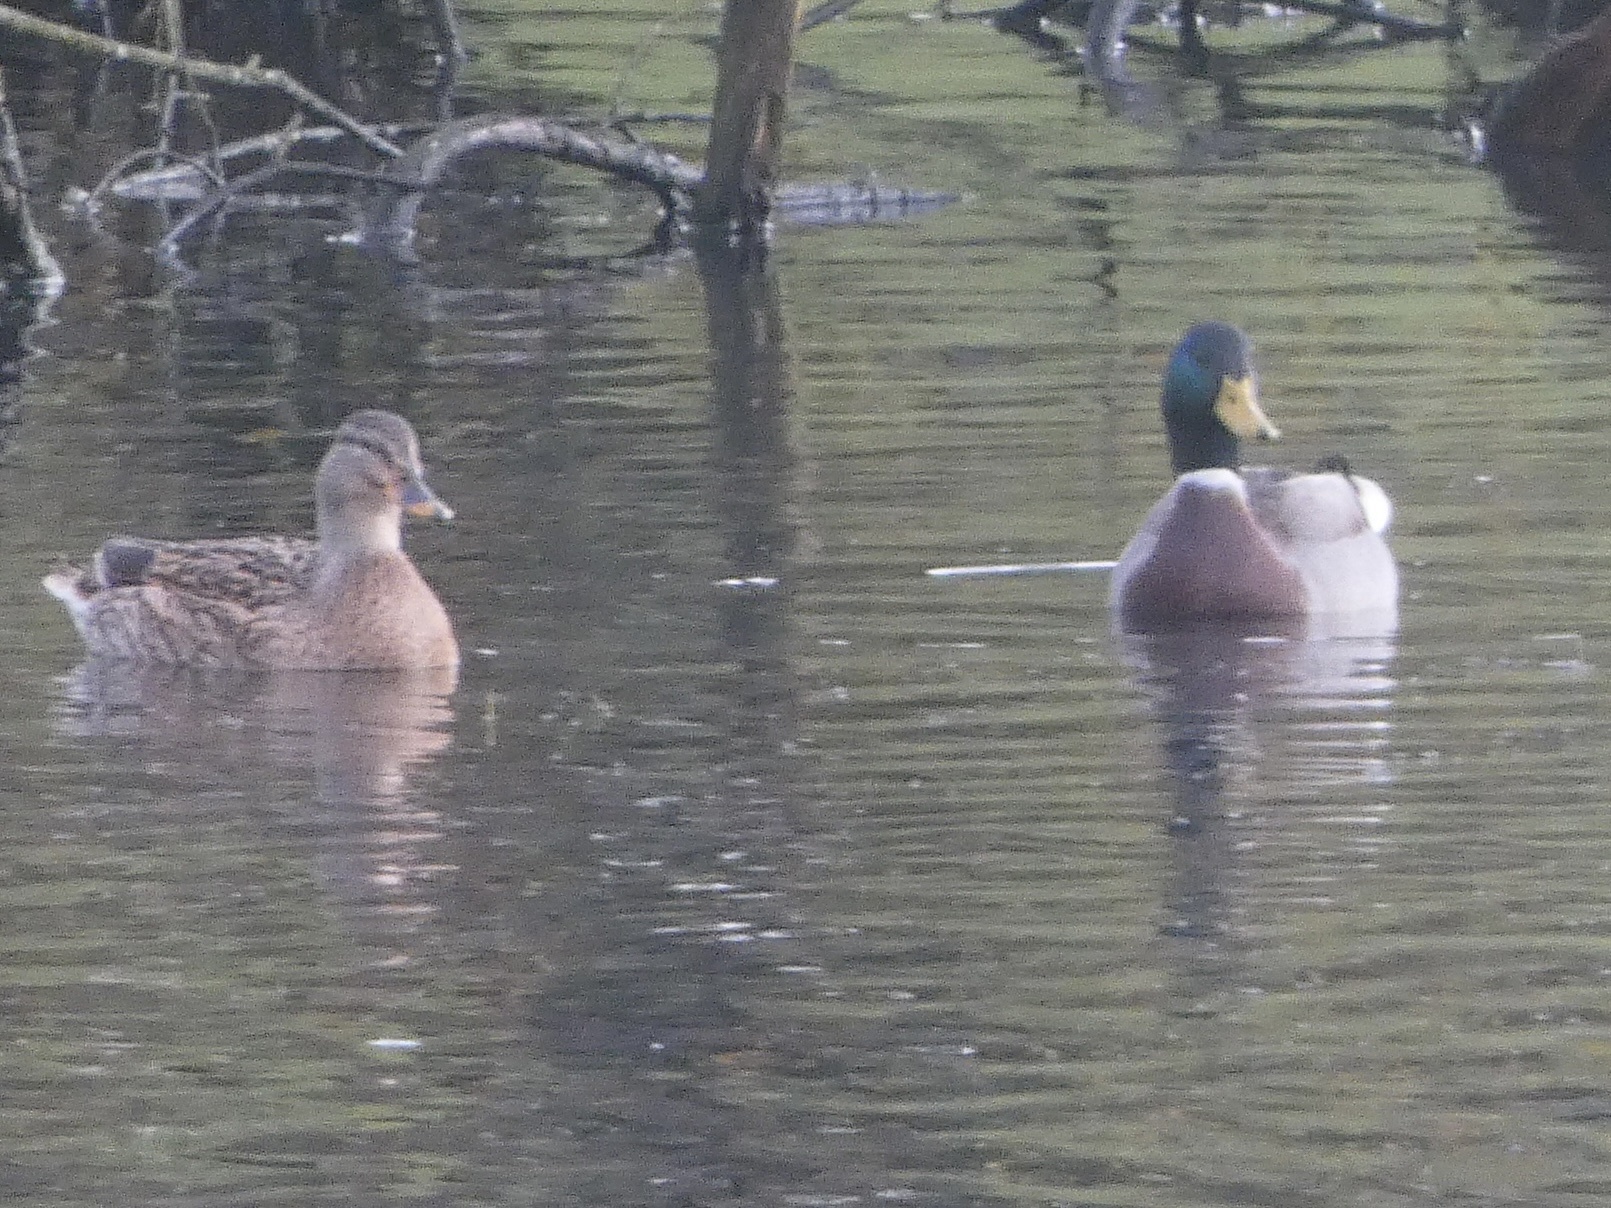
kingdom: Animalia
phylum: Chordata
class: Aves
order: Anseriformes
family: Anatidae
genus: Anas
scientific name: Anas platyrhynchos
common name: Mallard
